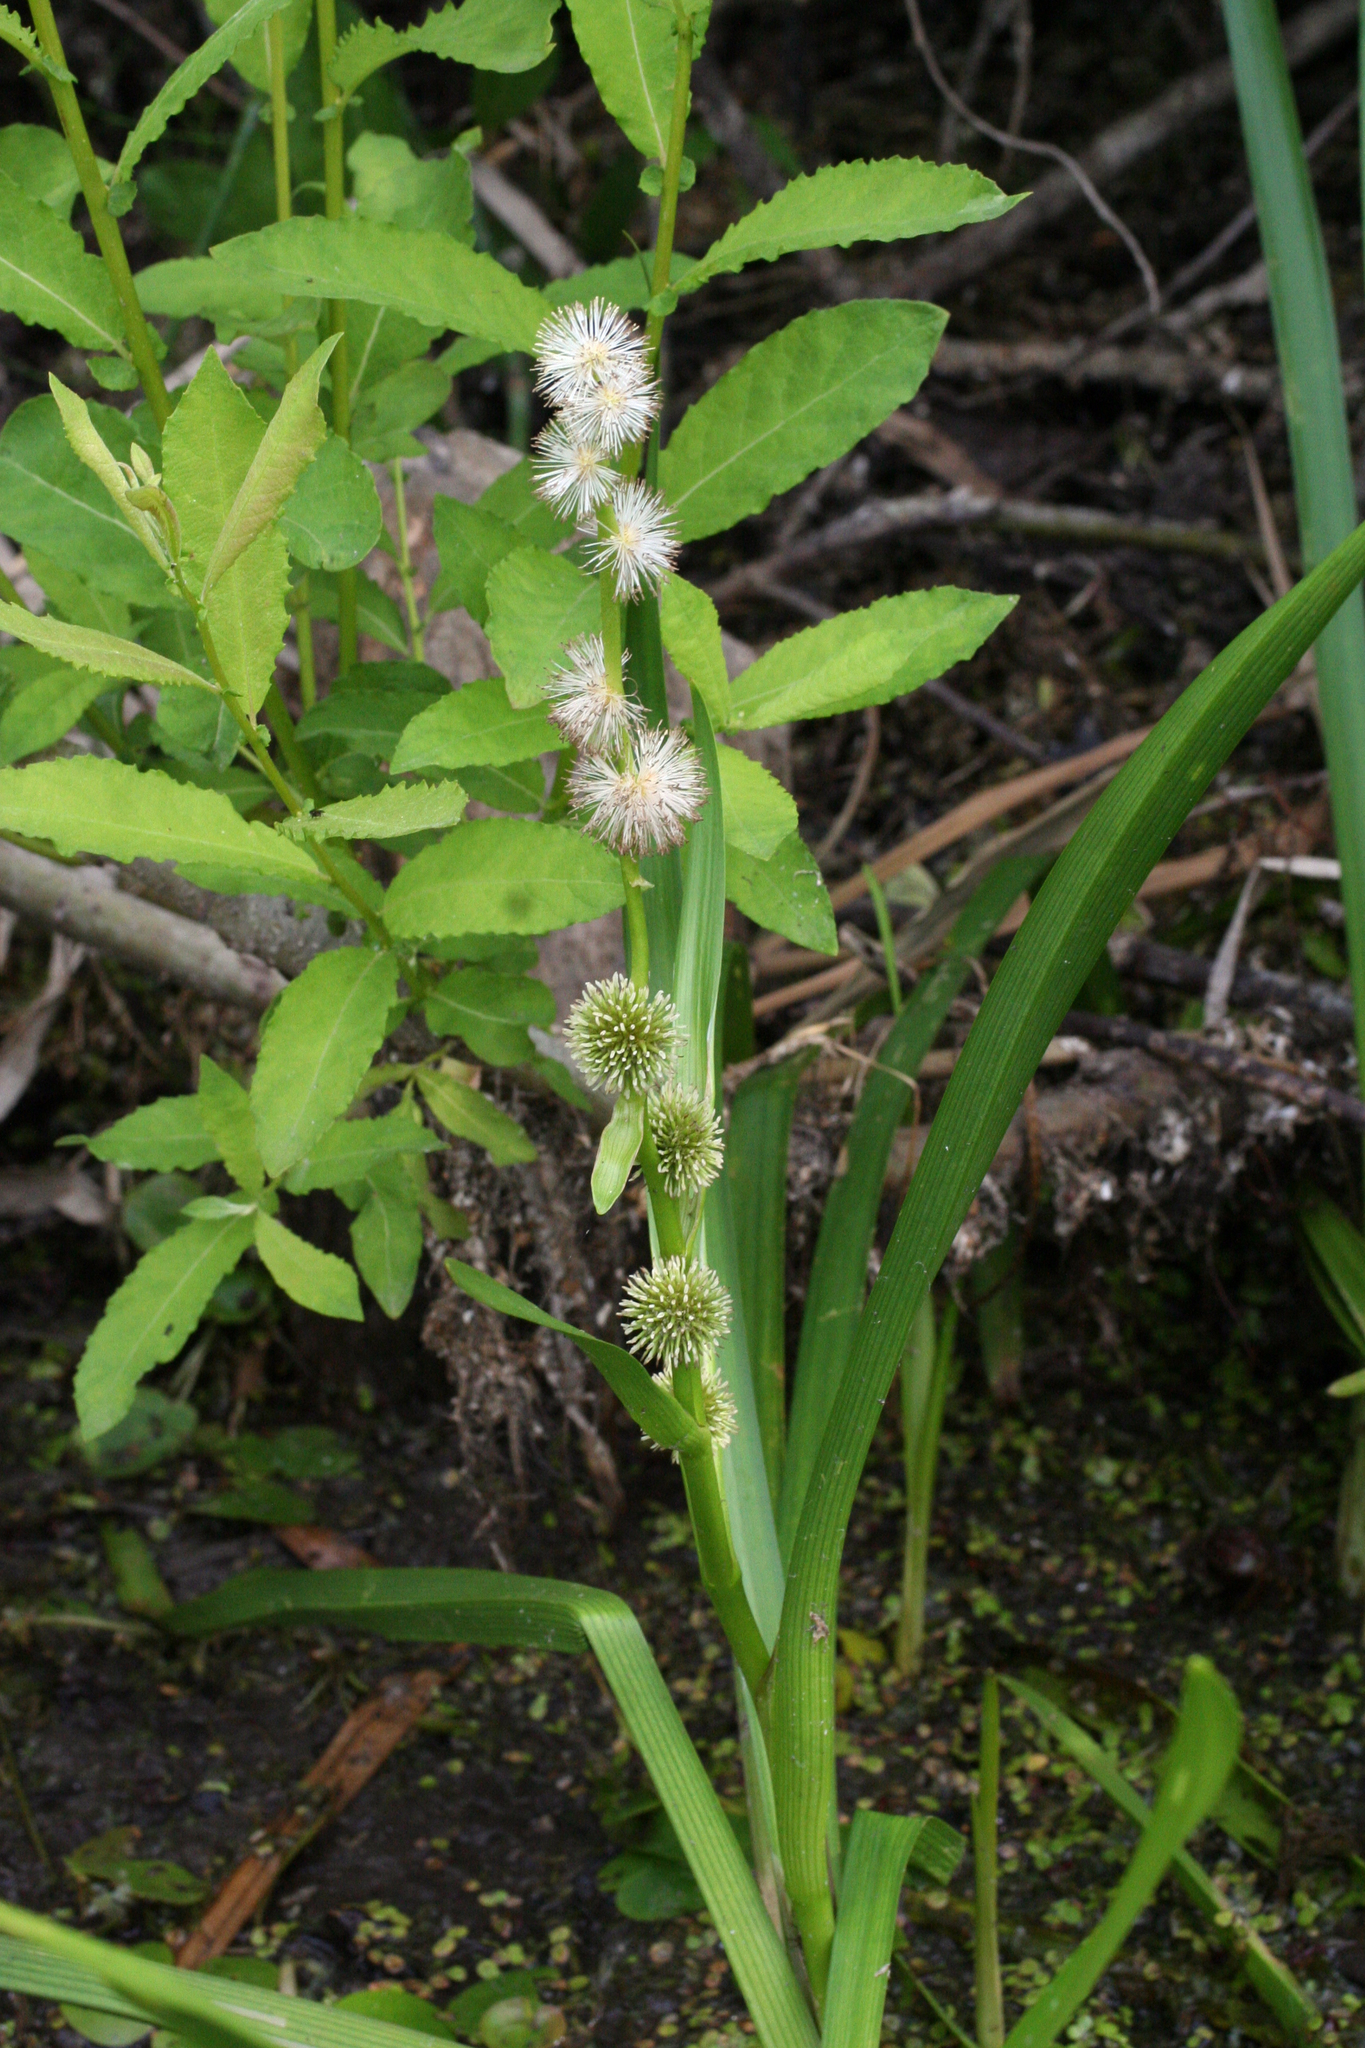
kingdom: Plantae
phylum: Tracheophyta
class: Liliopsida
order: Poales
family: Typhaceae
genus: Sparganium
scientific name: Sparganium emersum
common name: Unbranched bur-reed
